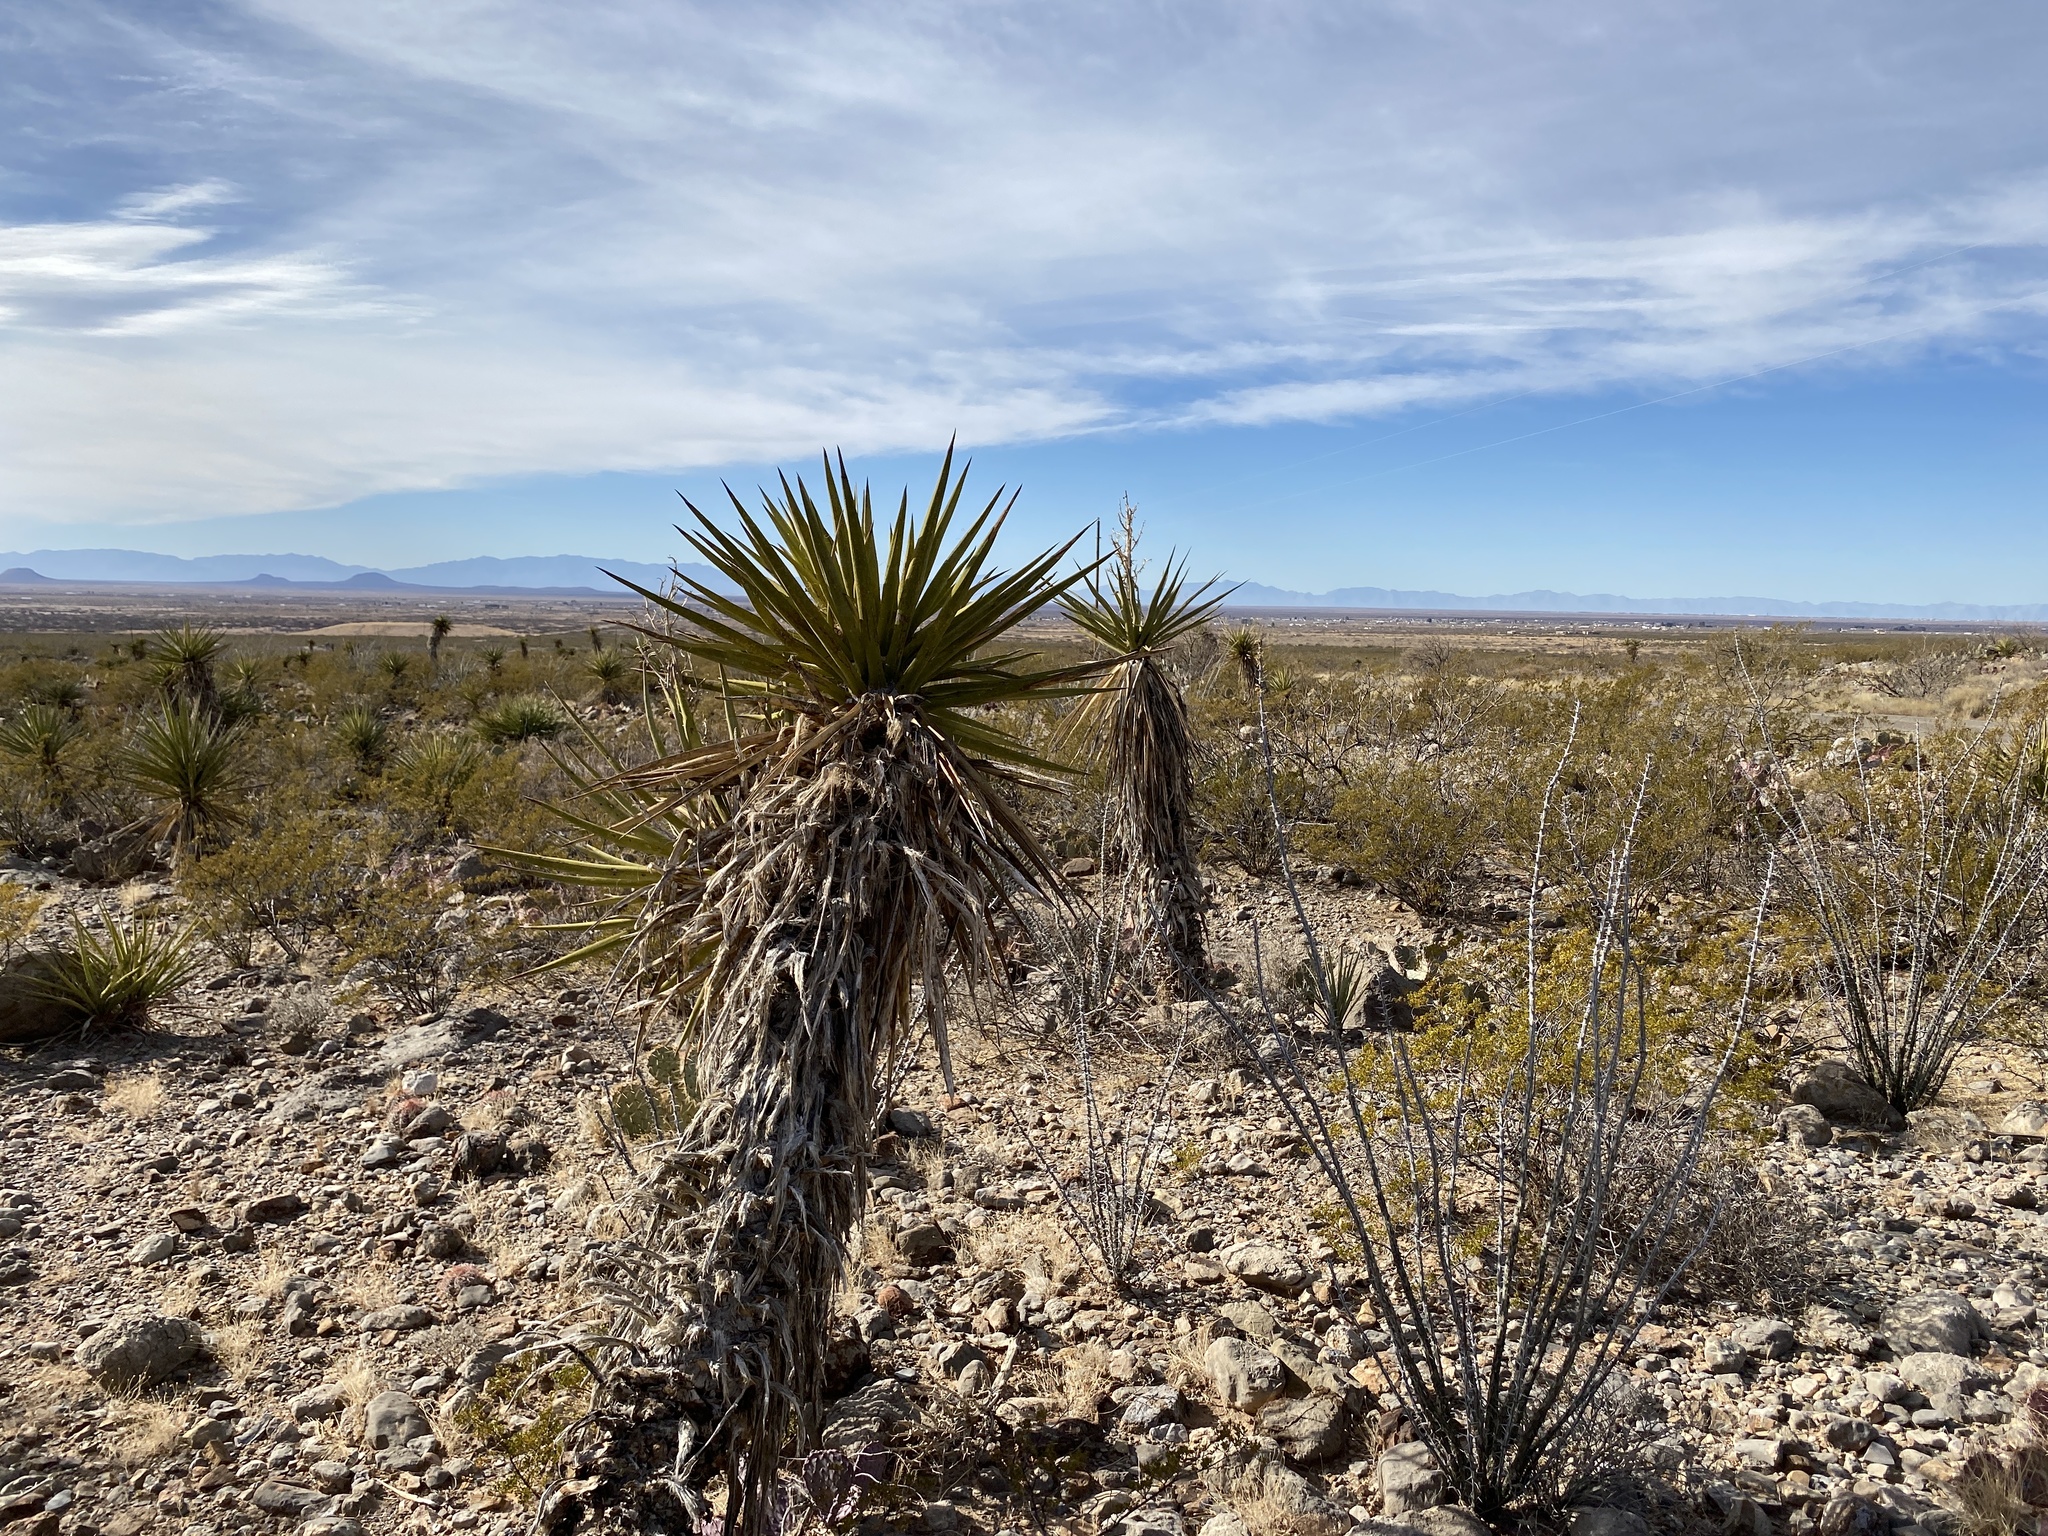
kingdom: Plantae
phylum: Tracheophyta
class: Liliopsida
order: Asparagales
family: Asparagaceae
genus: Yucca
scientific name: Yucca treculiana
